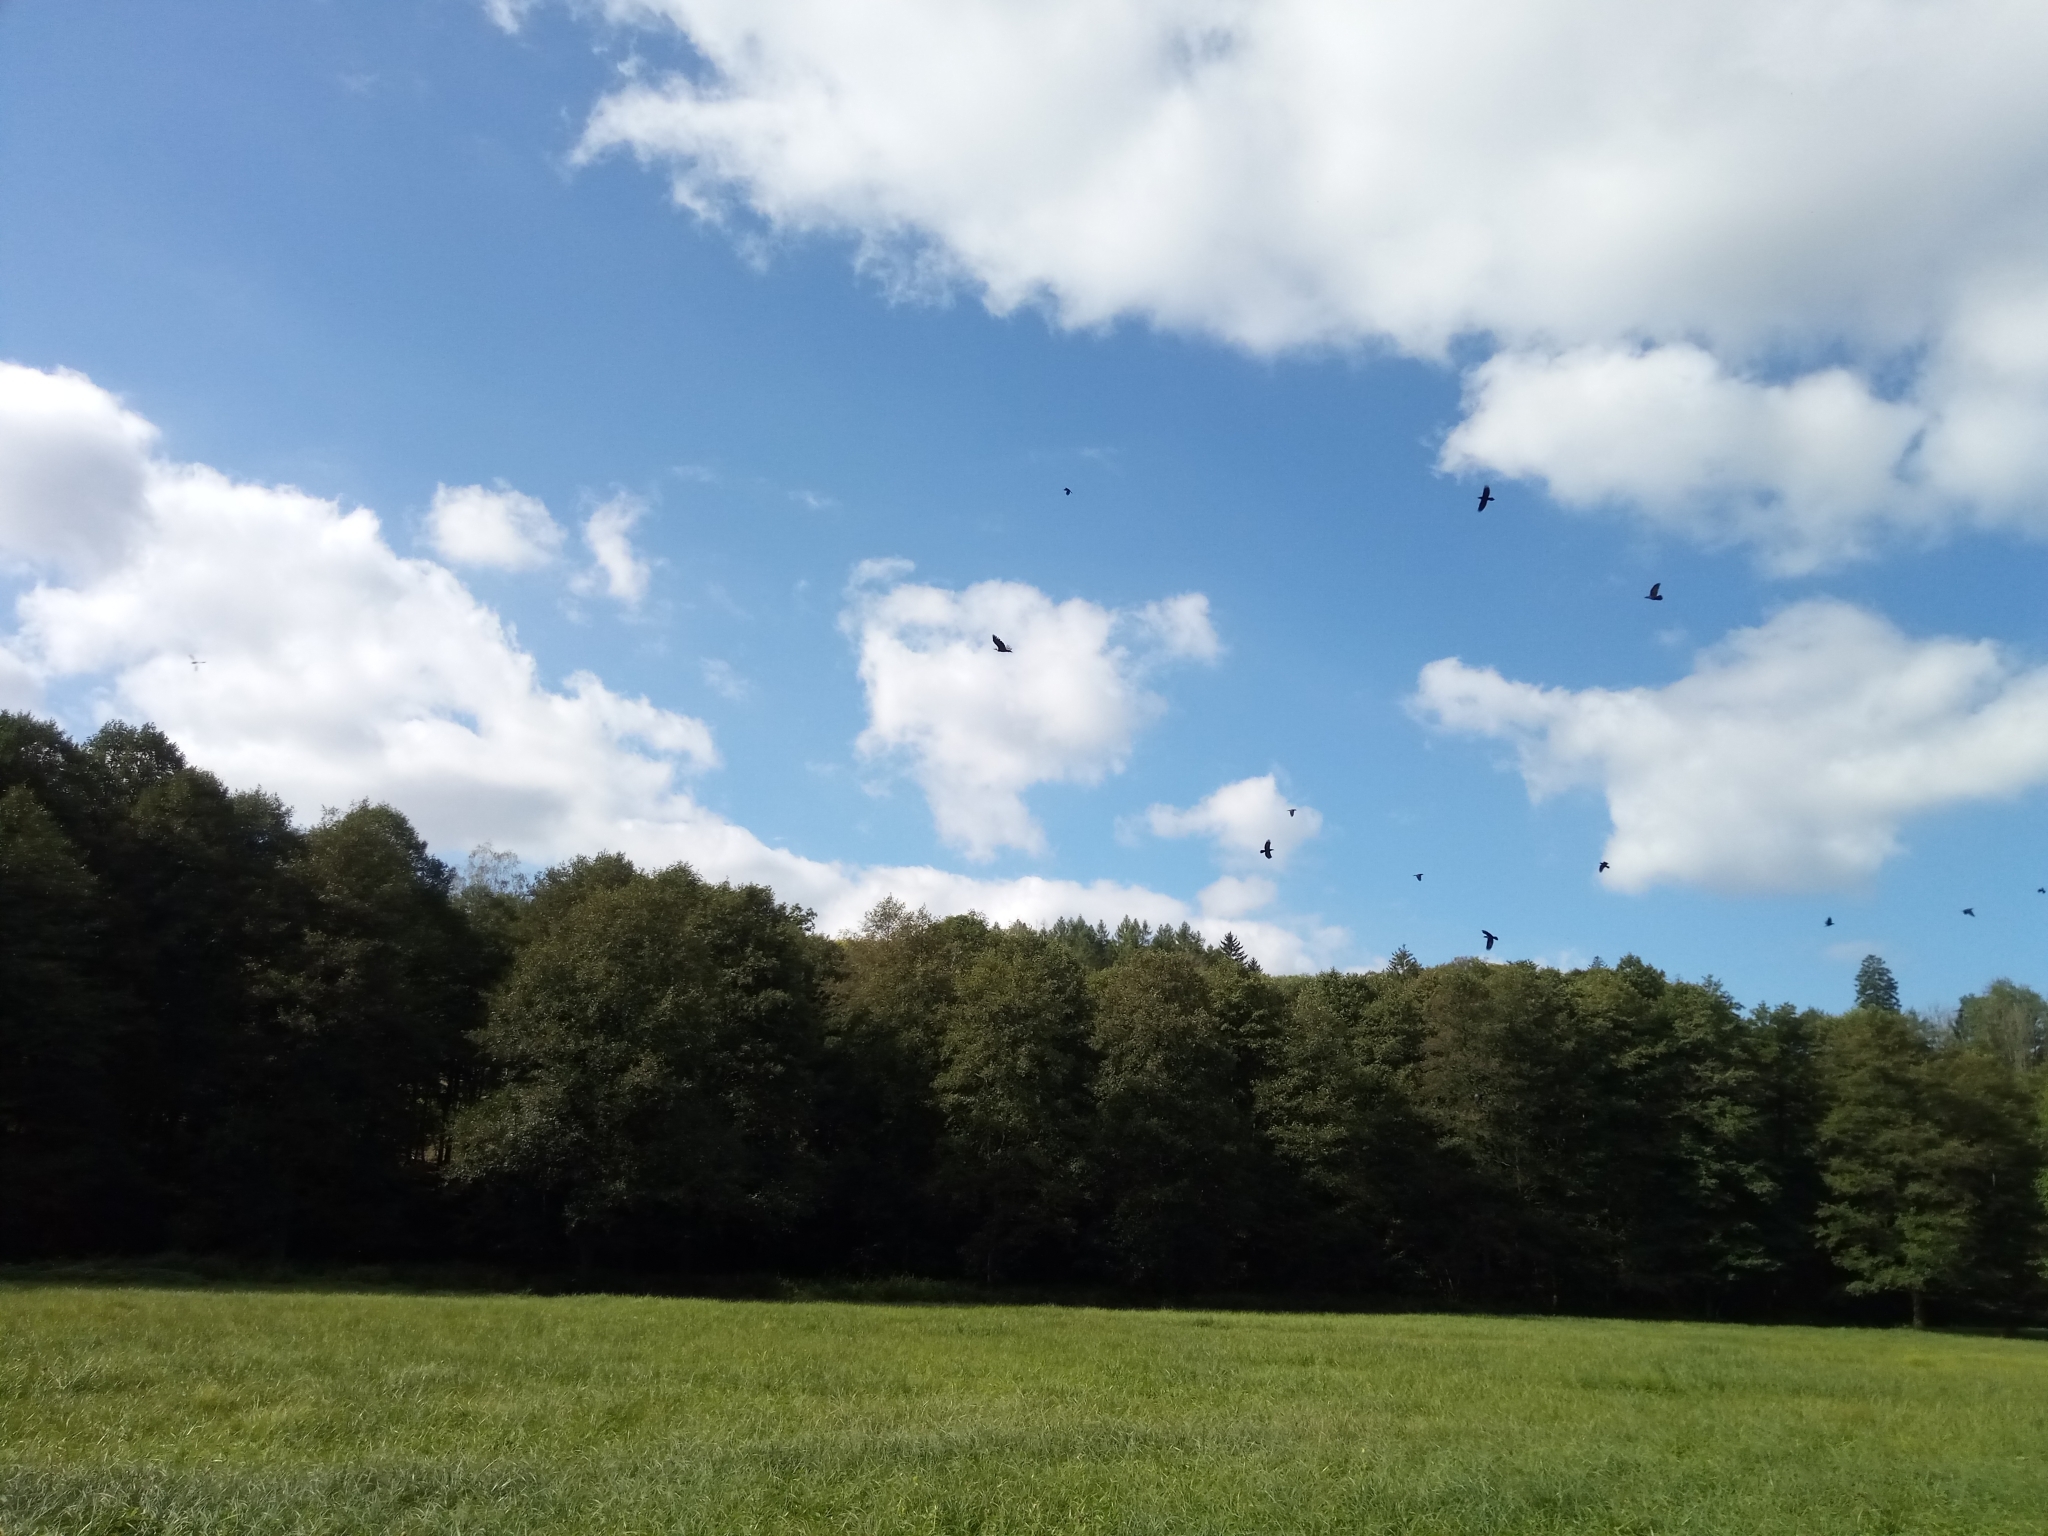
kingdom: Animalia
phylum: Chordata
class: Aves
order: Passeriformes
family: Corvidae
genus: Corvus
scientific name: Corvus corax
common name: Common raven
